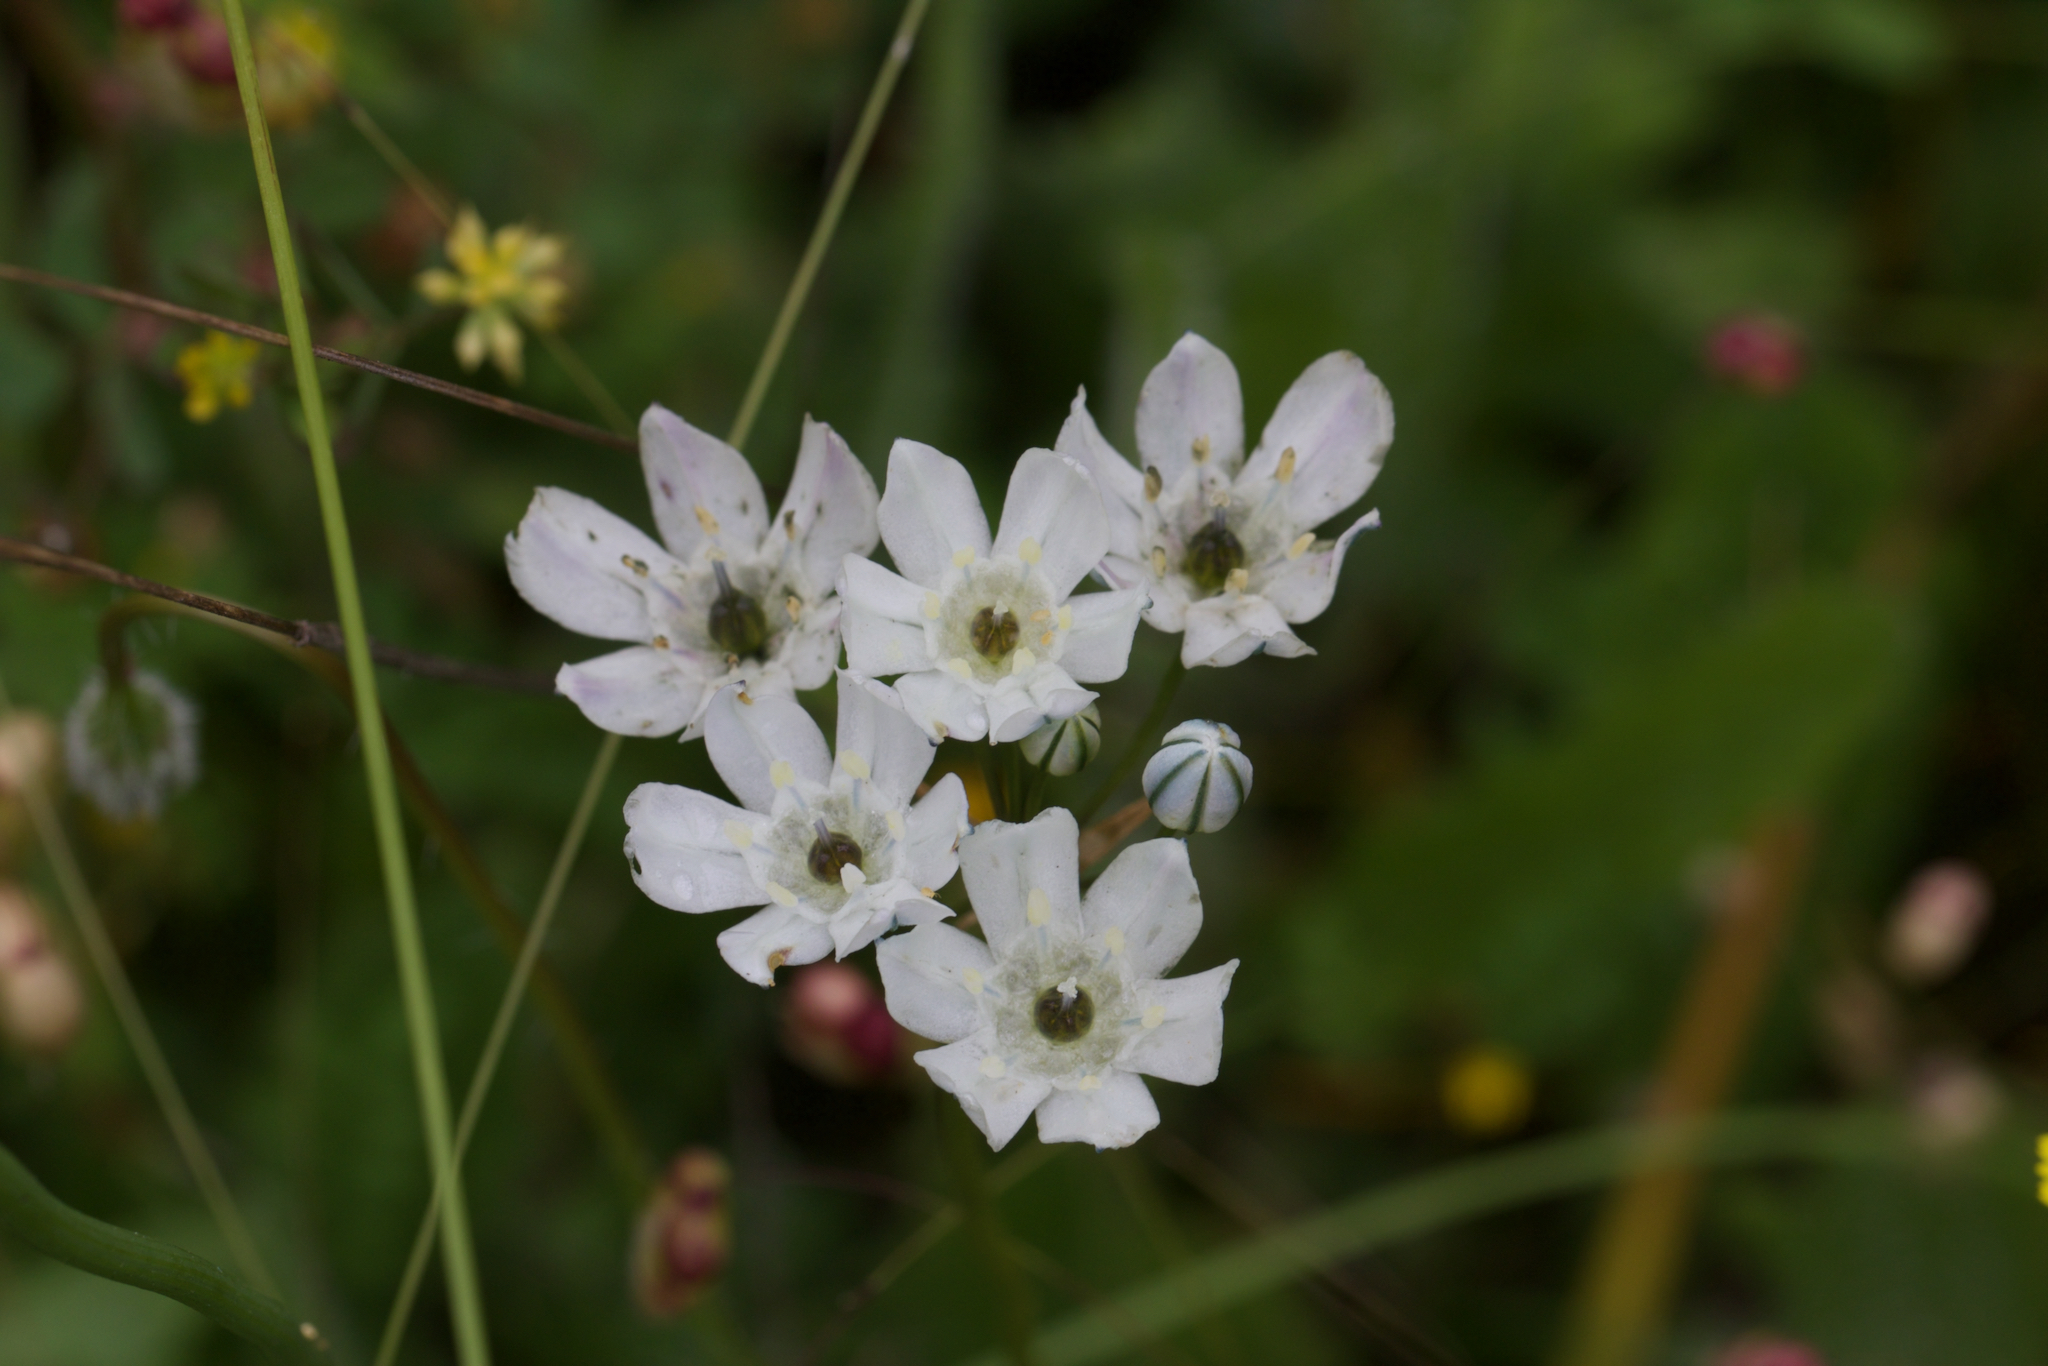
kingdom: Plantae
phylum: Tracheophyta
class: Liliopsida
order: Asparagales
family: Asparagaceae
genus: Triteleia
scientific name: Triteleia hyacinthina
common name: White brodiaea
